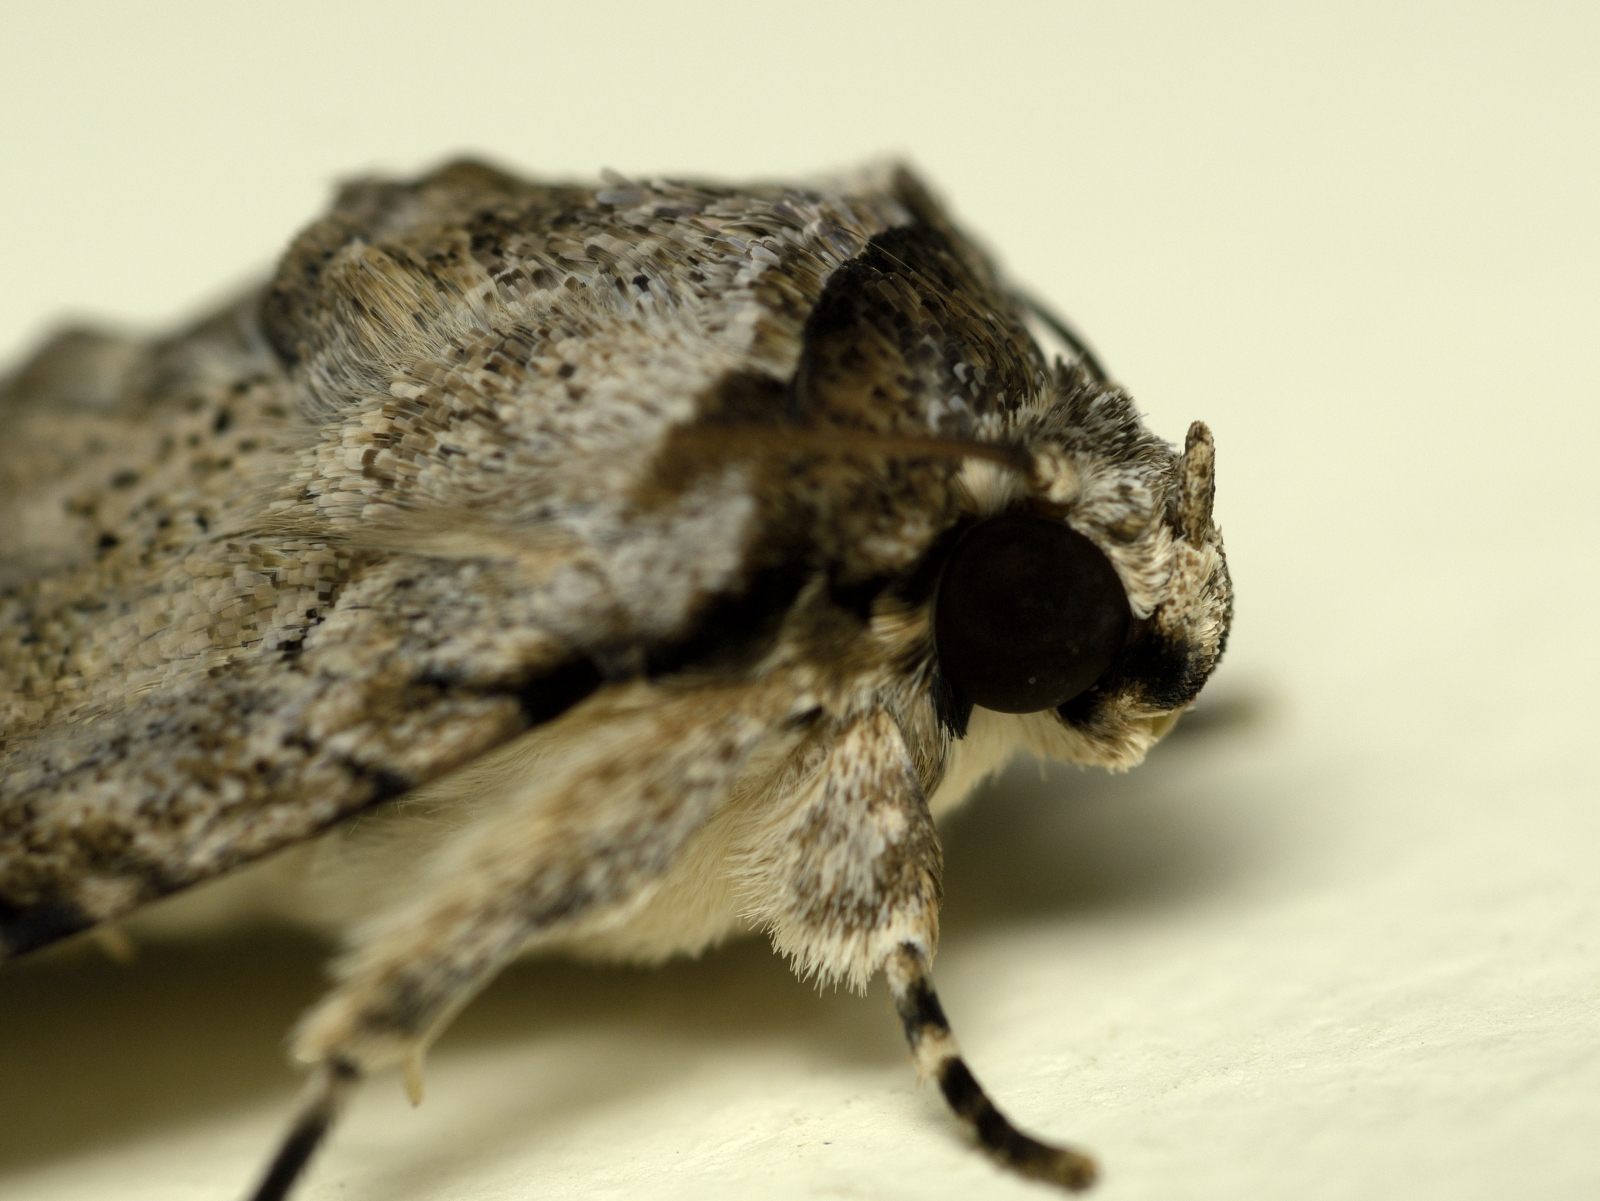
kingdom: Animalia
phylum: Arthropoda
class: Insecta
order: Lepidoptera
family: Erebidae
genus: Bamra
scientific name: Bamra mundata
